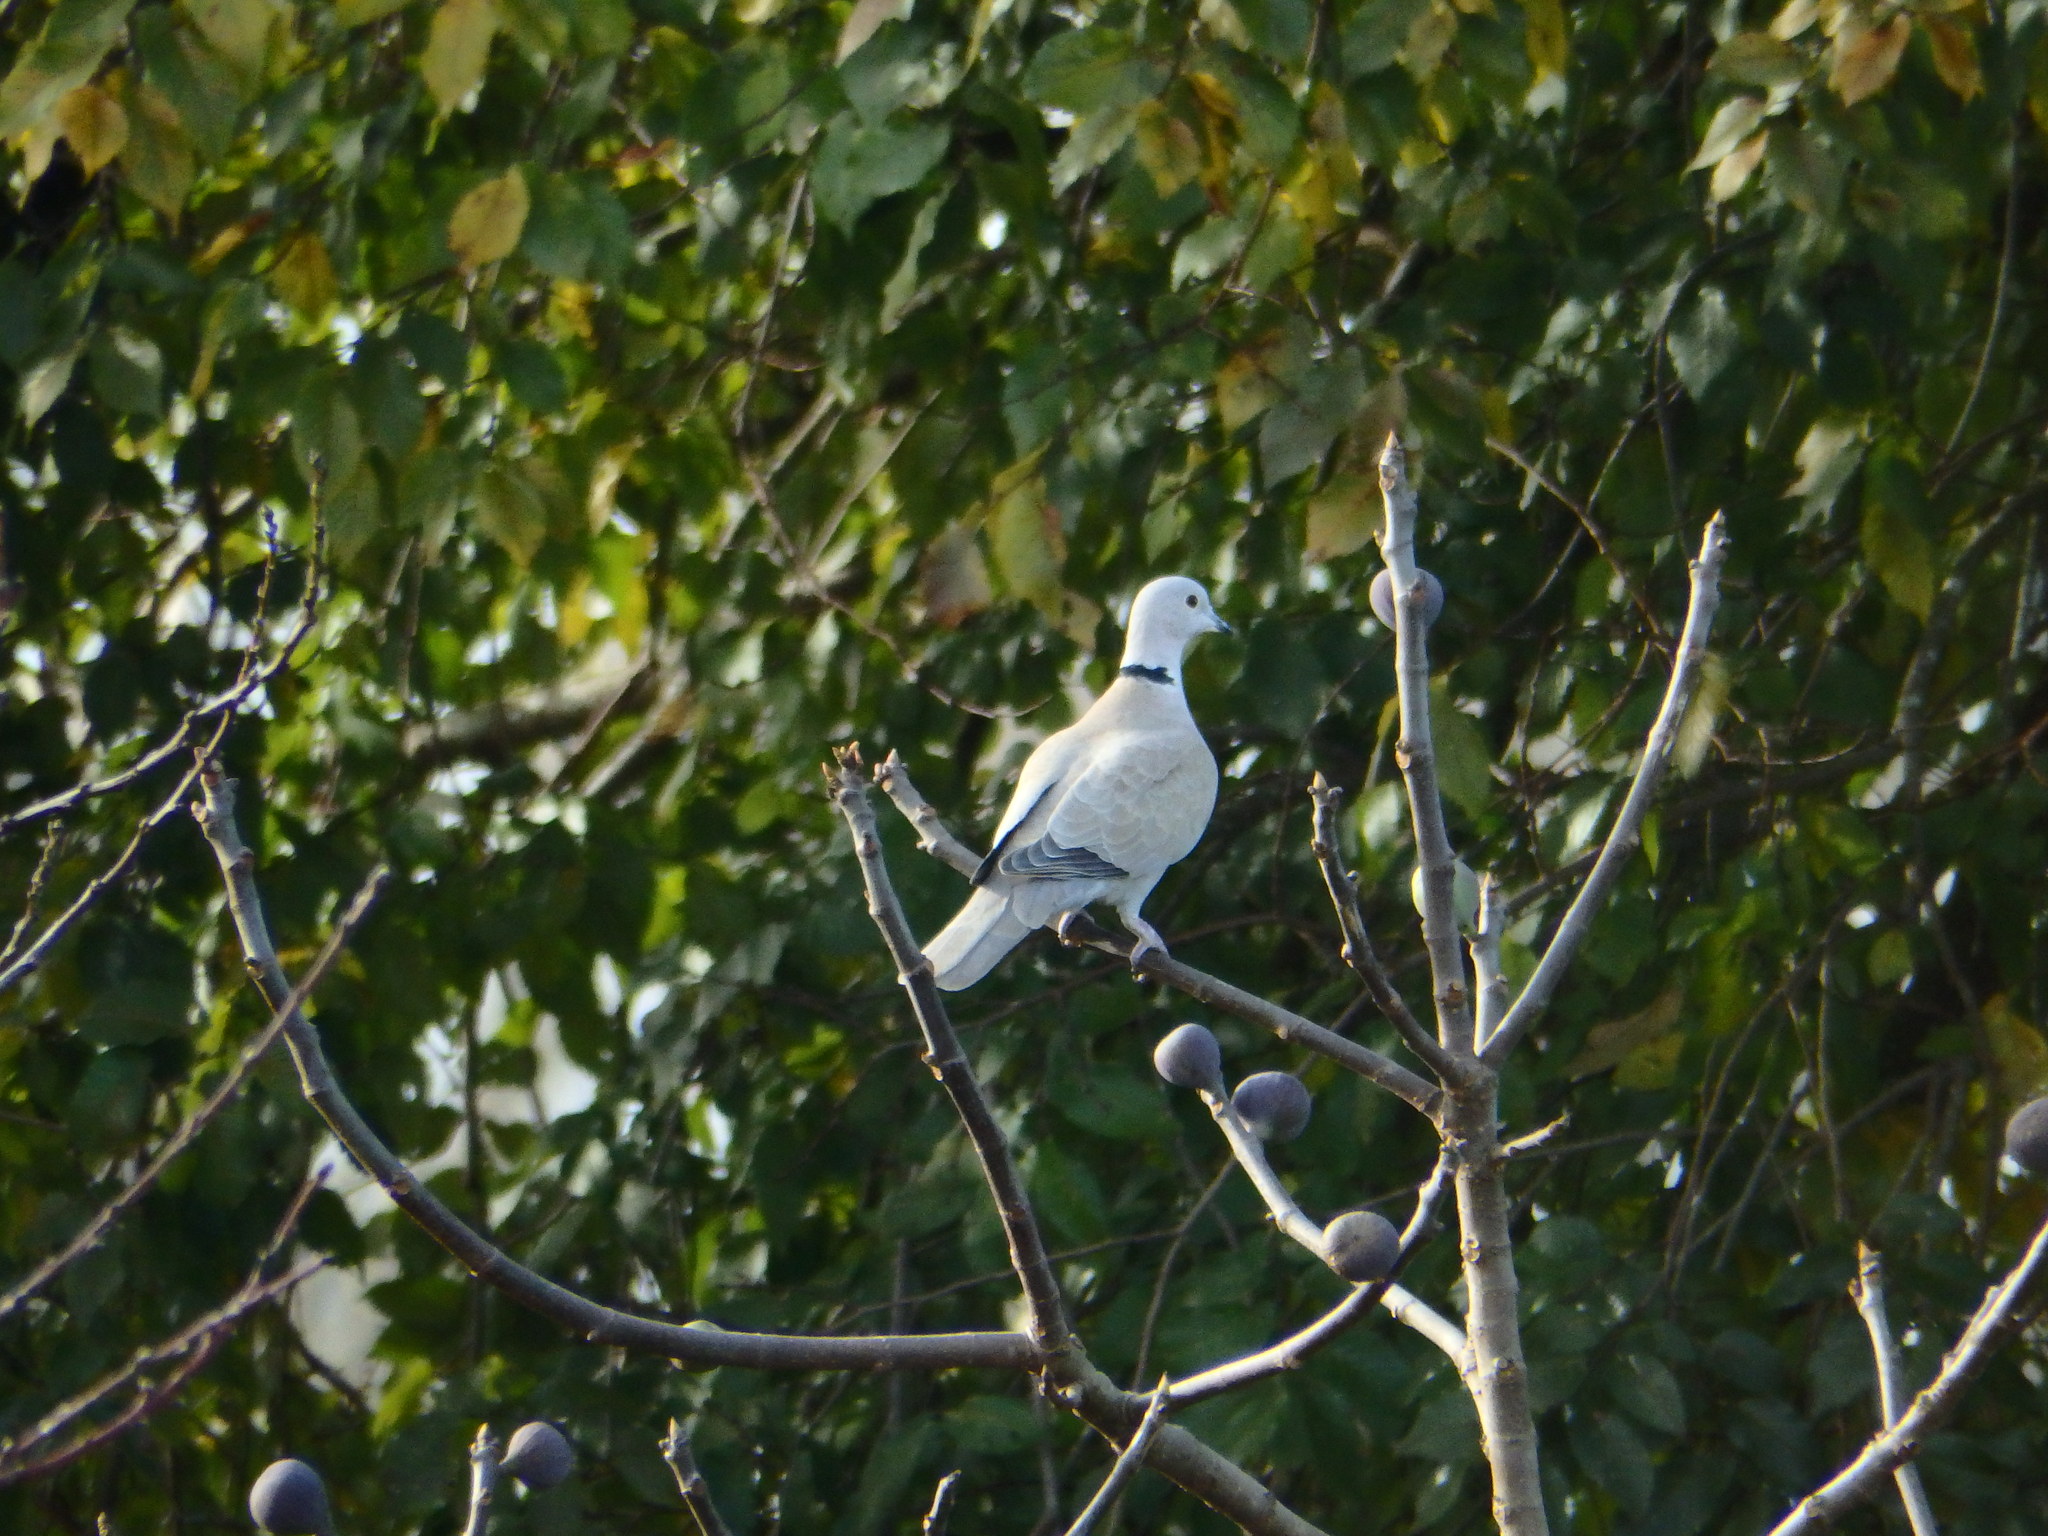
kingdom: Animalia
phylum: Chordata
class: Aves
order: Columbiformes
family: Columbidae
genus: Streptopelia
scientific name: Streptopelia decaocto
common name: Eurasian collared dove
